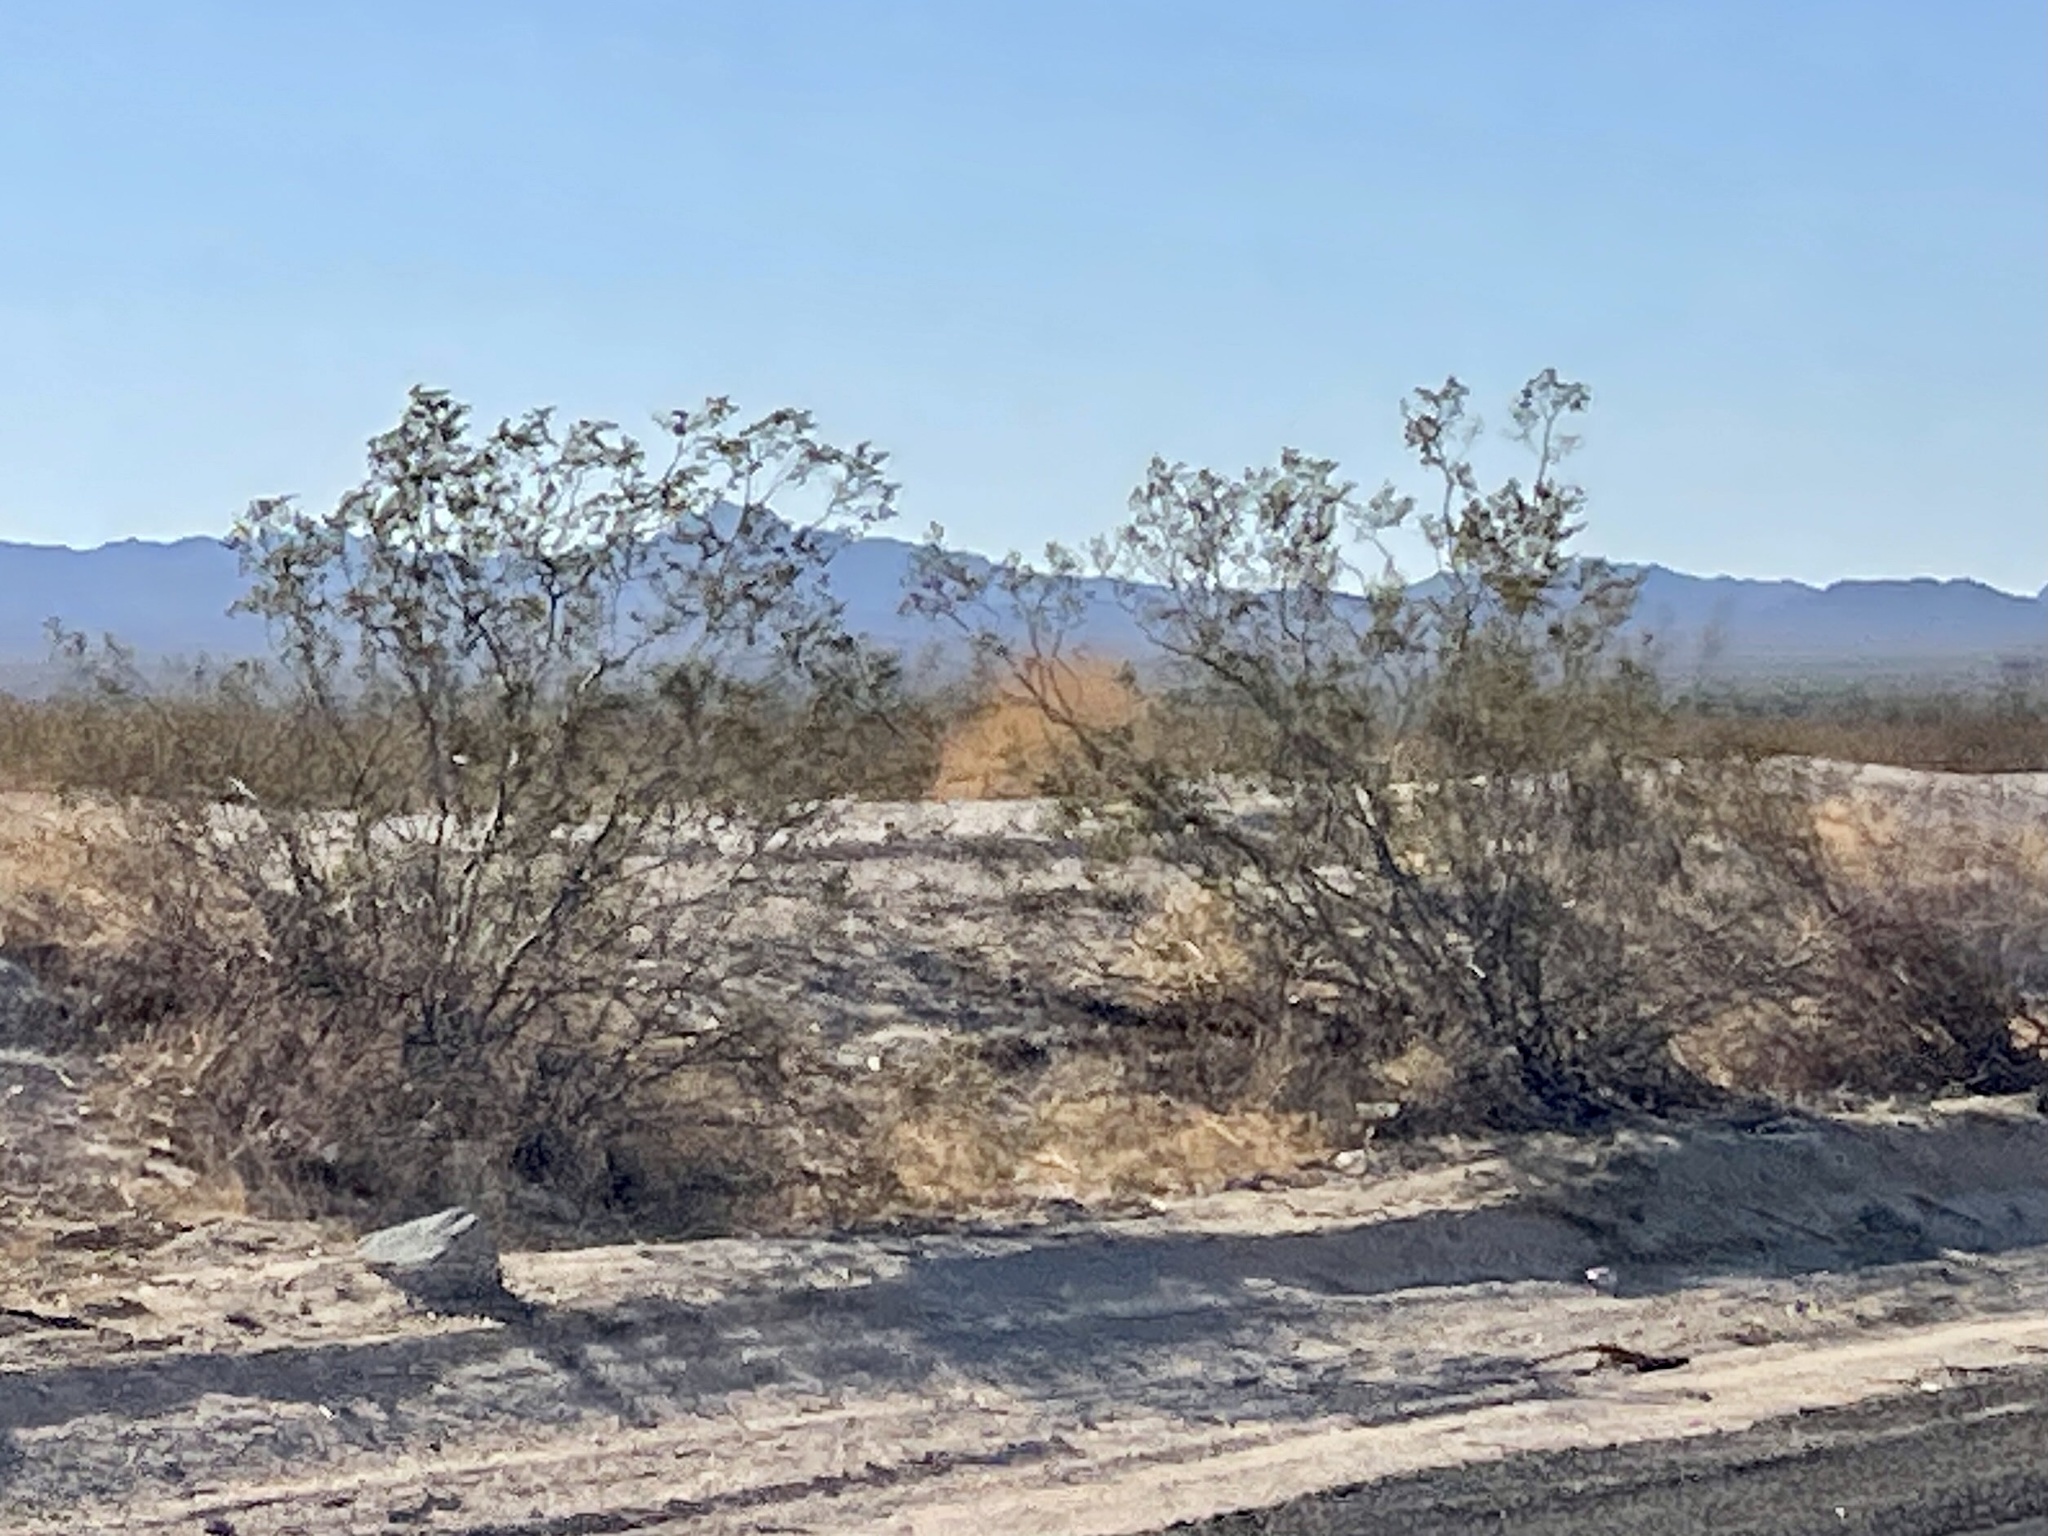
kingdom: Plantae
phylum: Tracheophyta
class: Magnoliopsida
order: Zygophyllales
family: Zygophyllaceae
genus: Larrea
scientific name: Larrea tridentata
